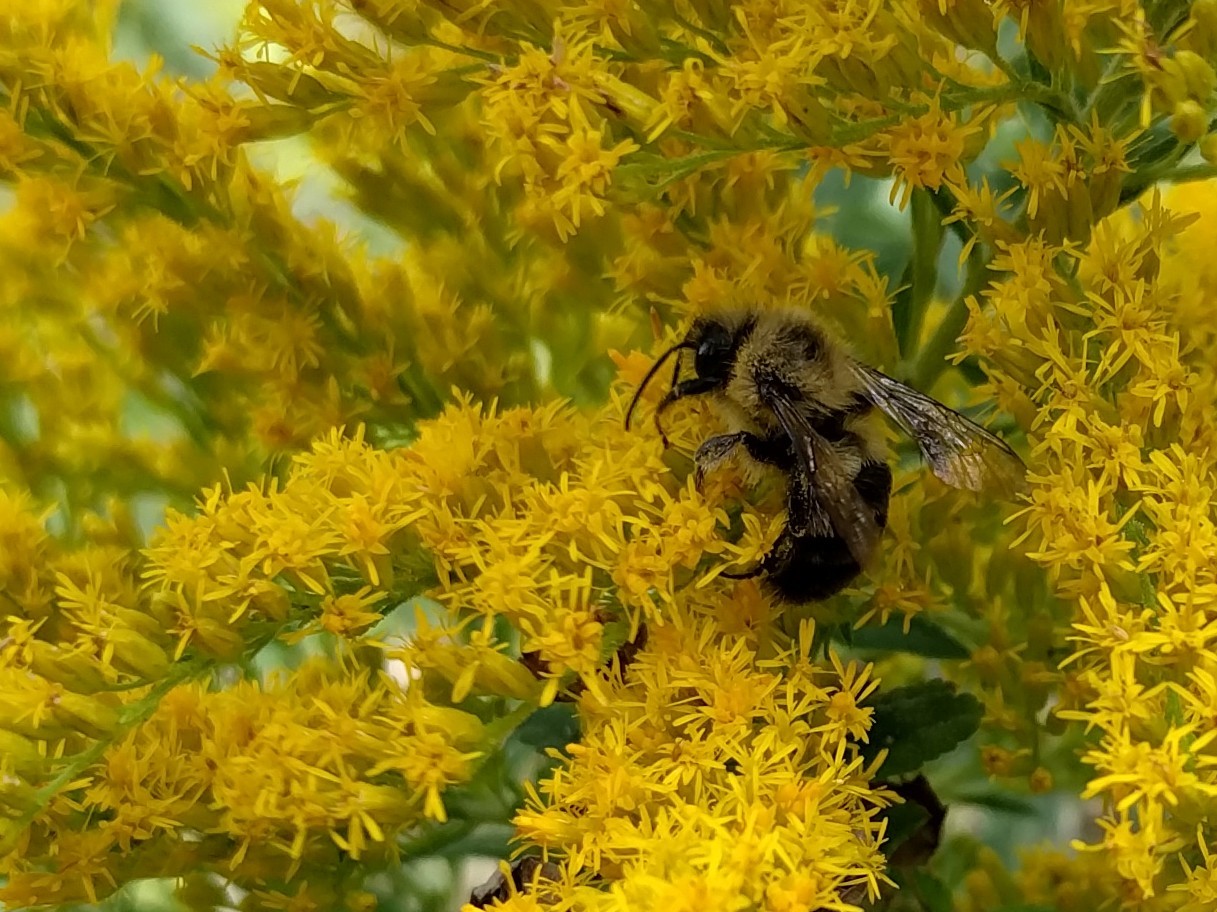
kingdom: Animalia
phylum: Arthropoda
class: Insecta
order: Hymenoptera
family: Apidae
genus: Bombus
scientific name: Bombus impatiens
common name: Common eastern bumble bee
